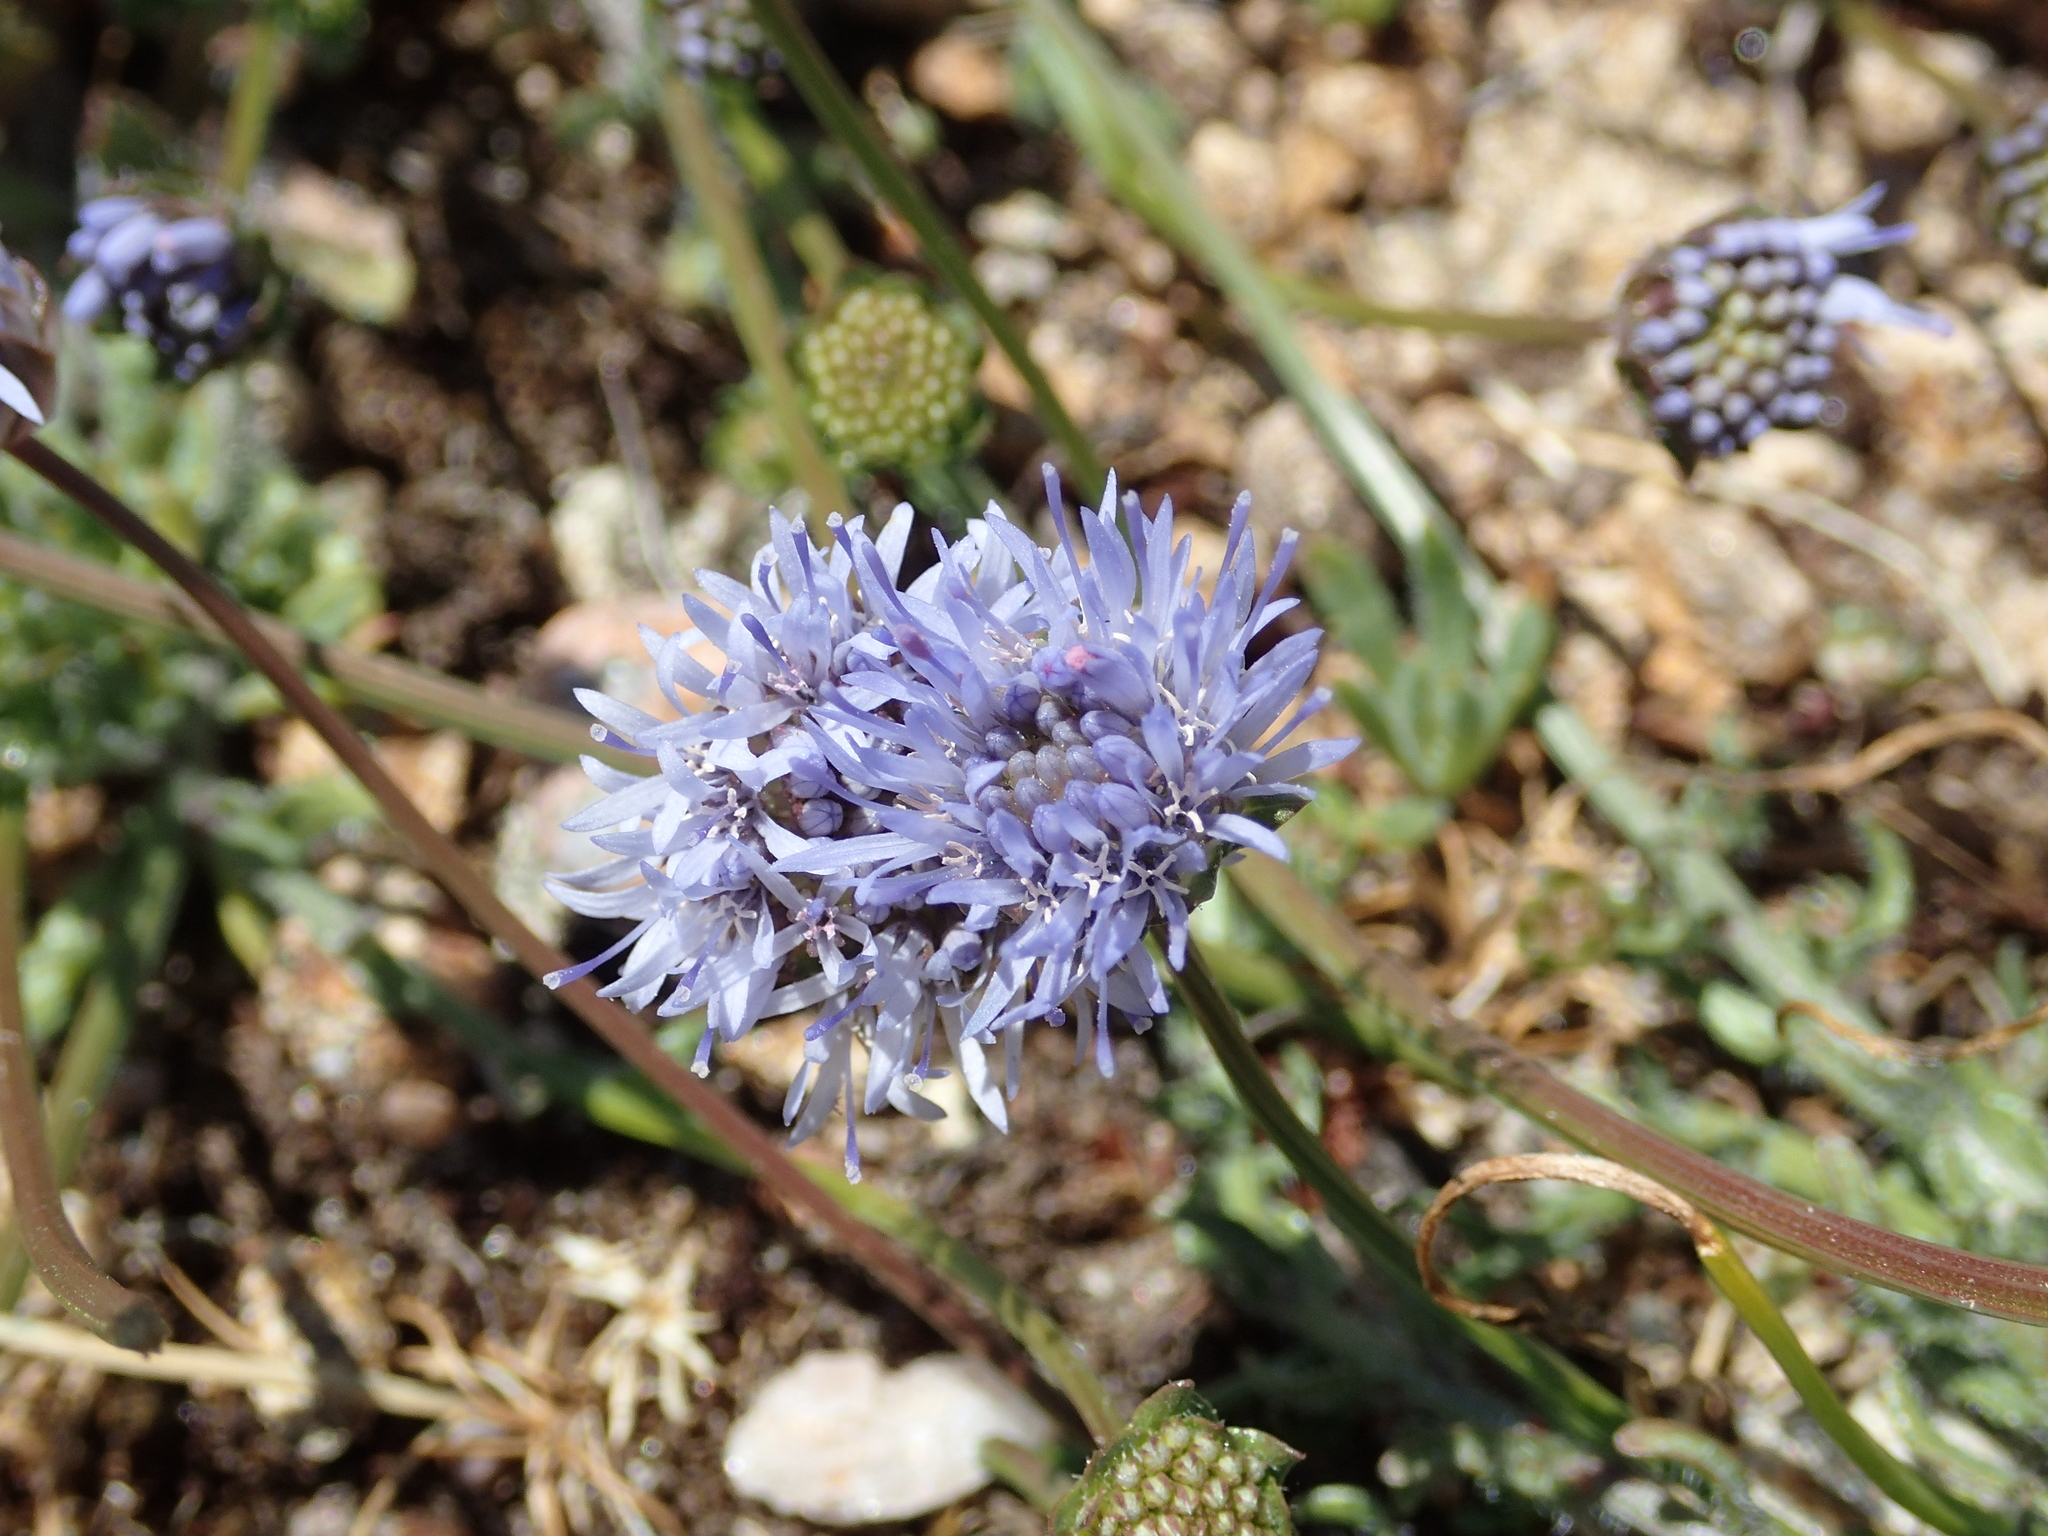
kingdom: Plantae
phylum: Tracheophyta
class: Magnoliopsida
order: Asterales
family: Campanulaceae
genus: Jasione
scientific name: Jasione maritima
